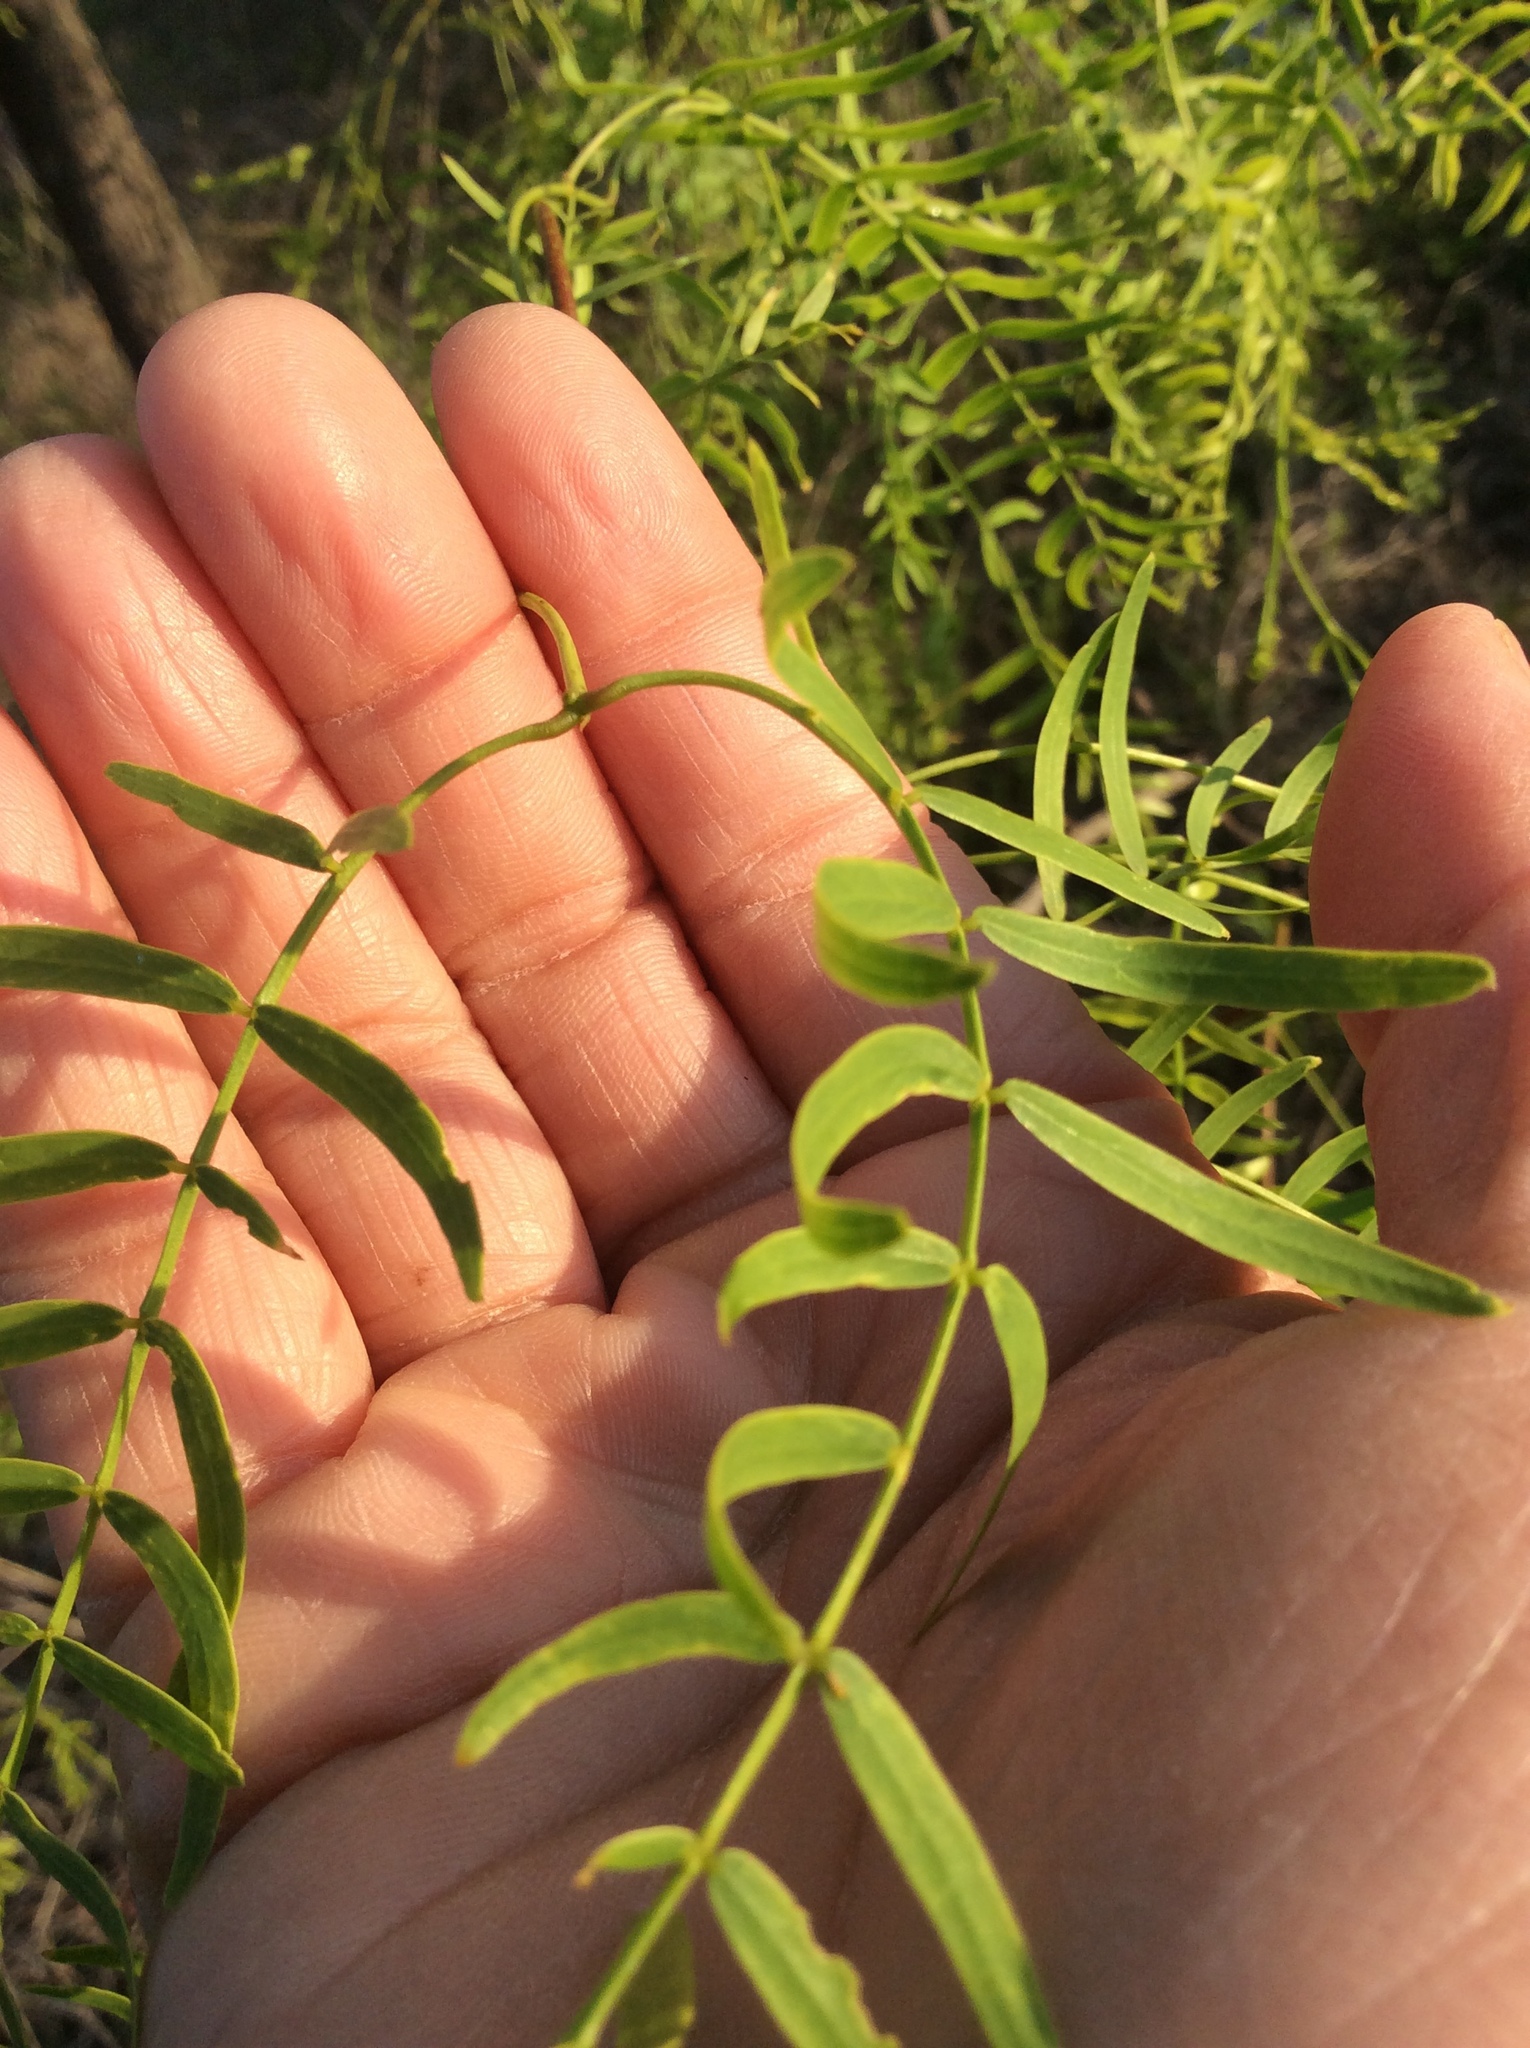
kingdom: Plantae
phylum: Tracheophyta
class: Magnoliopsida
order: Fabales
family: Fabaceae
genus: Prosopis
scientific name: Prosopis glandulosa
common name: Honey mesquite
